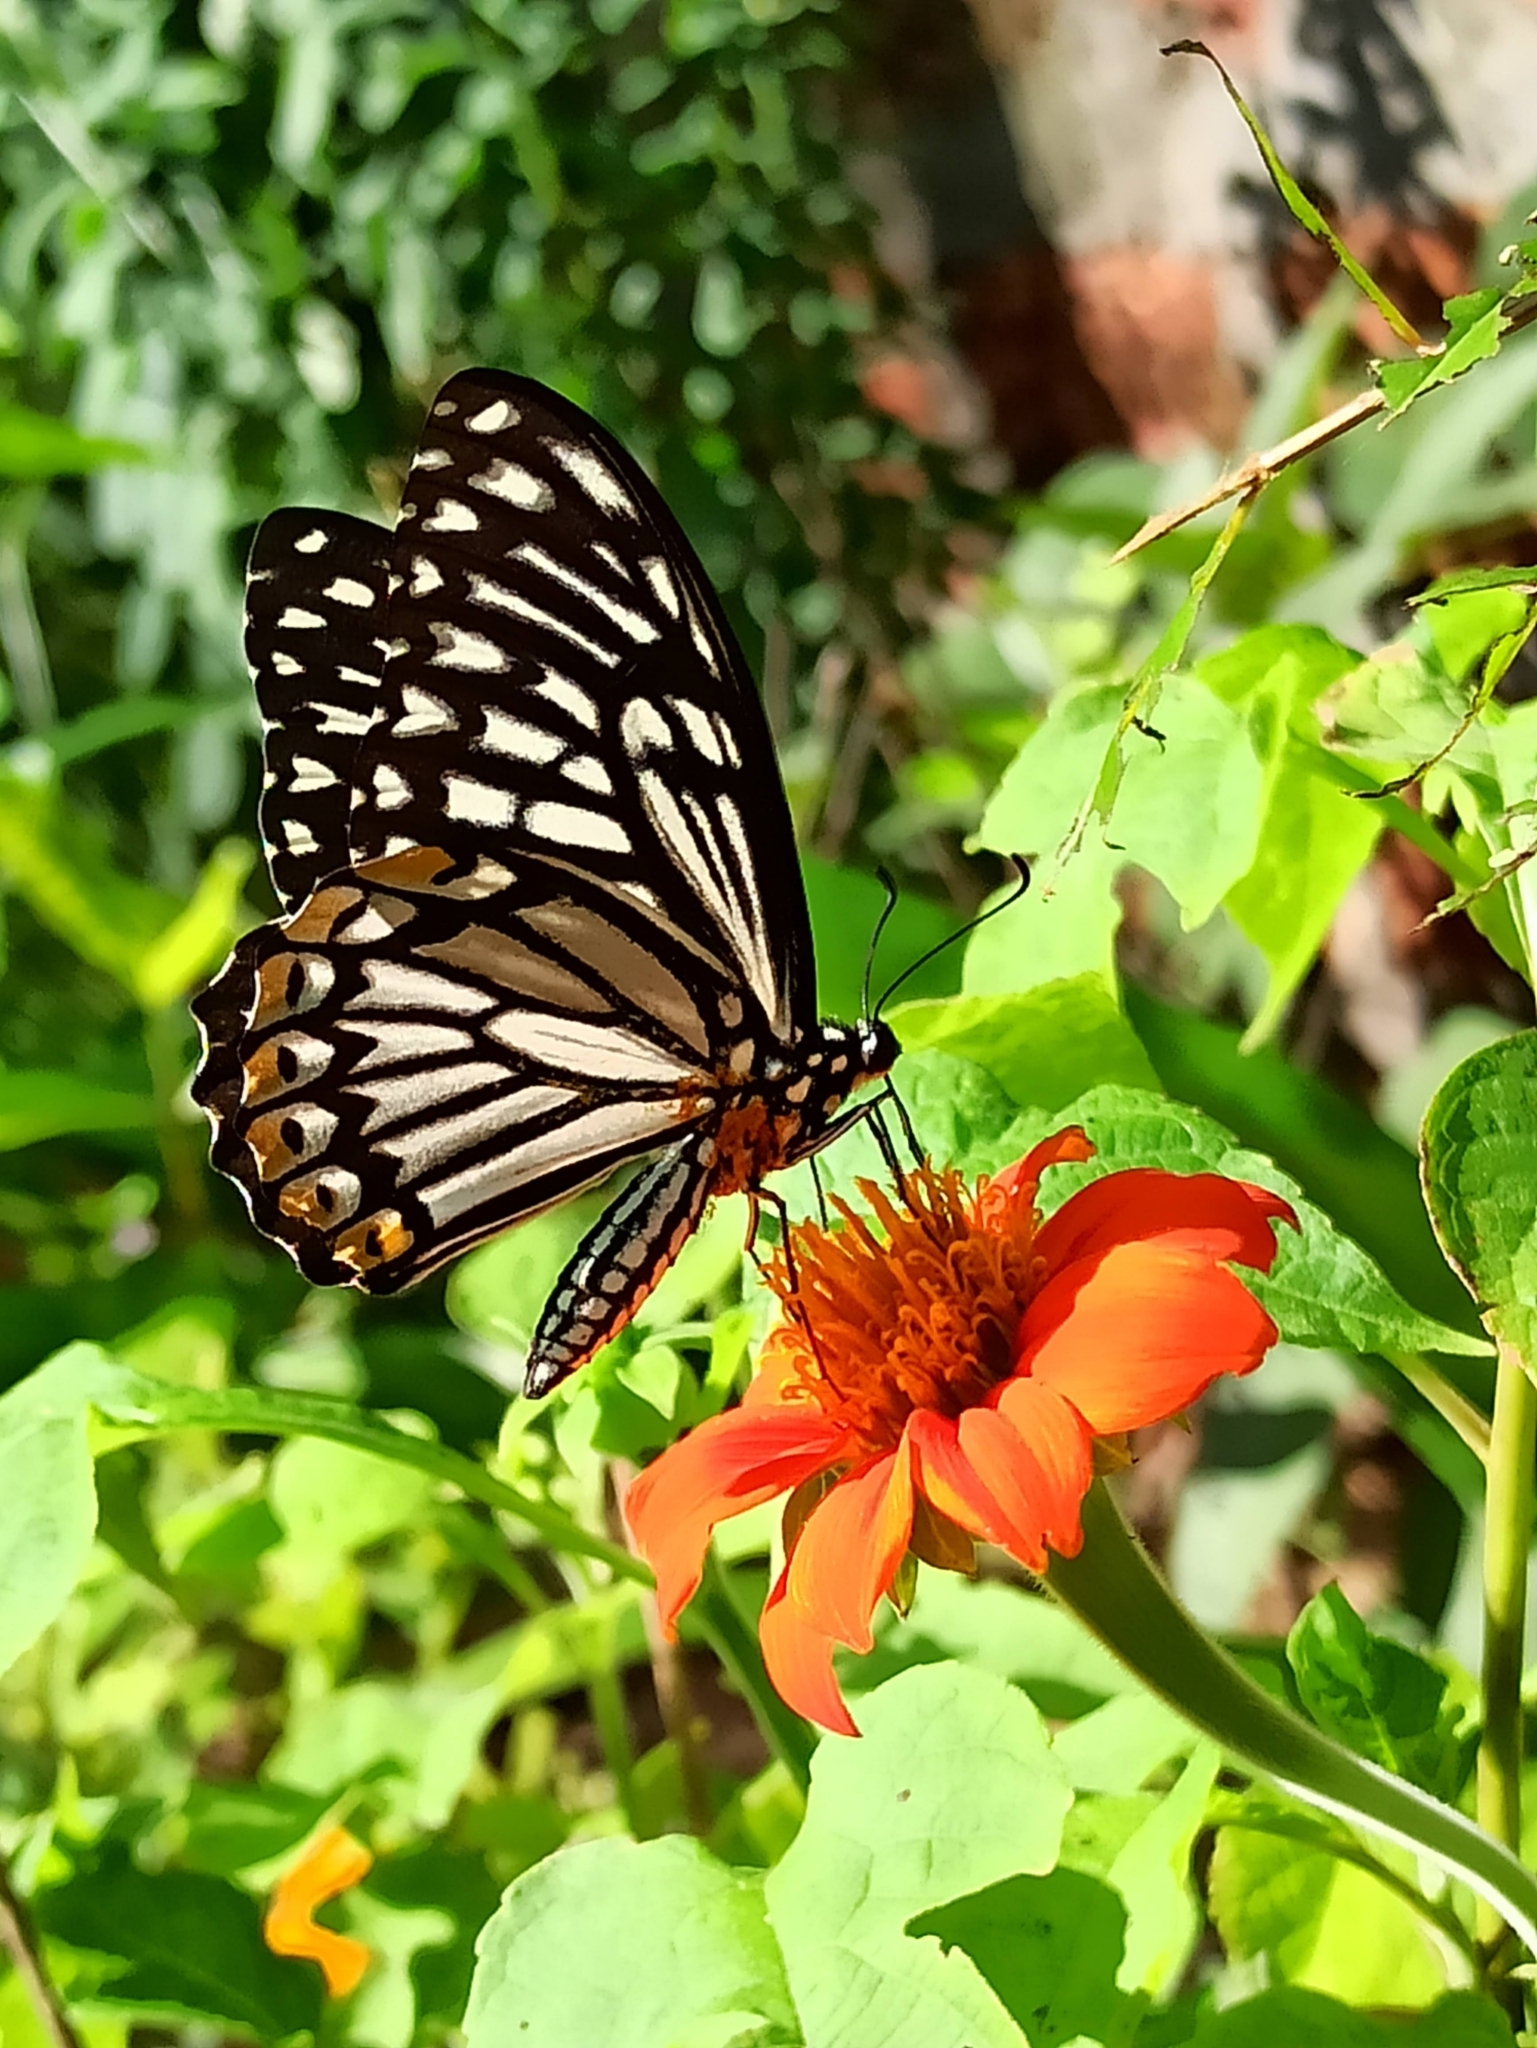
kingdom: Animalia
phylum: Arthropoda
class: Insecta
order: Lepidoptera
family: Papilionidae
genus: Chilasa
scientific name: Chilasa clytia
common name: Common mime
